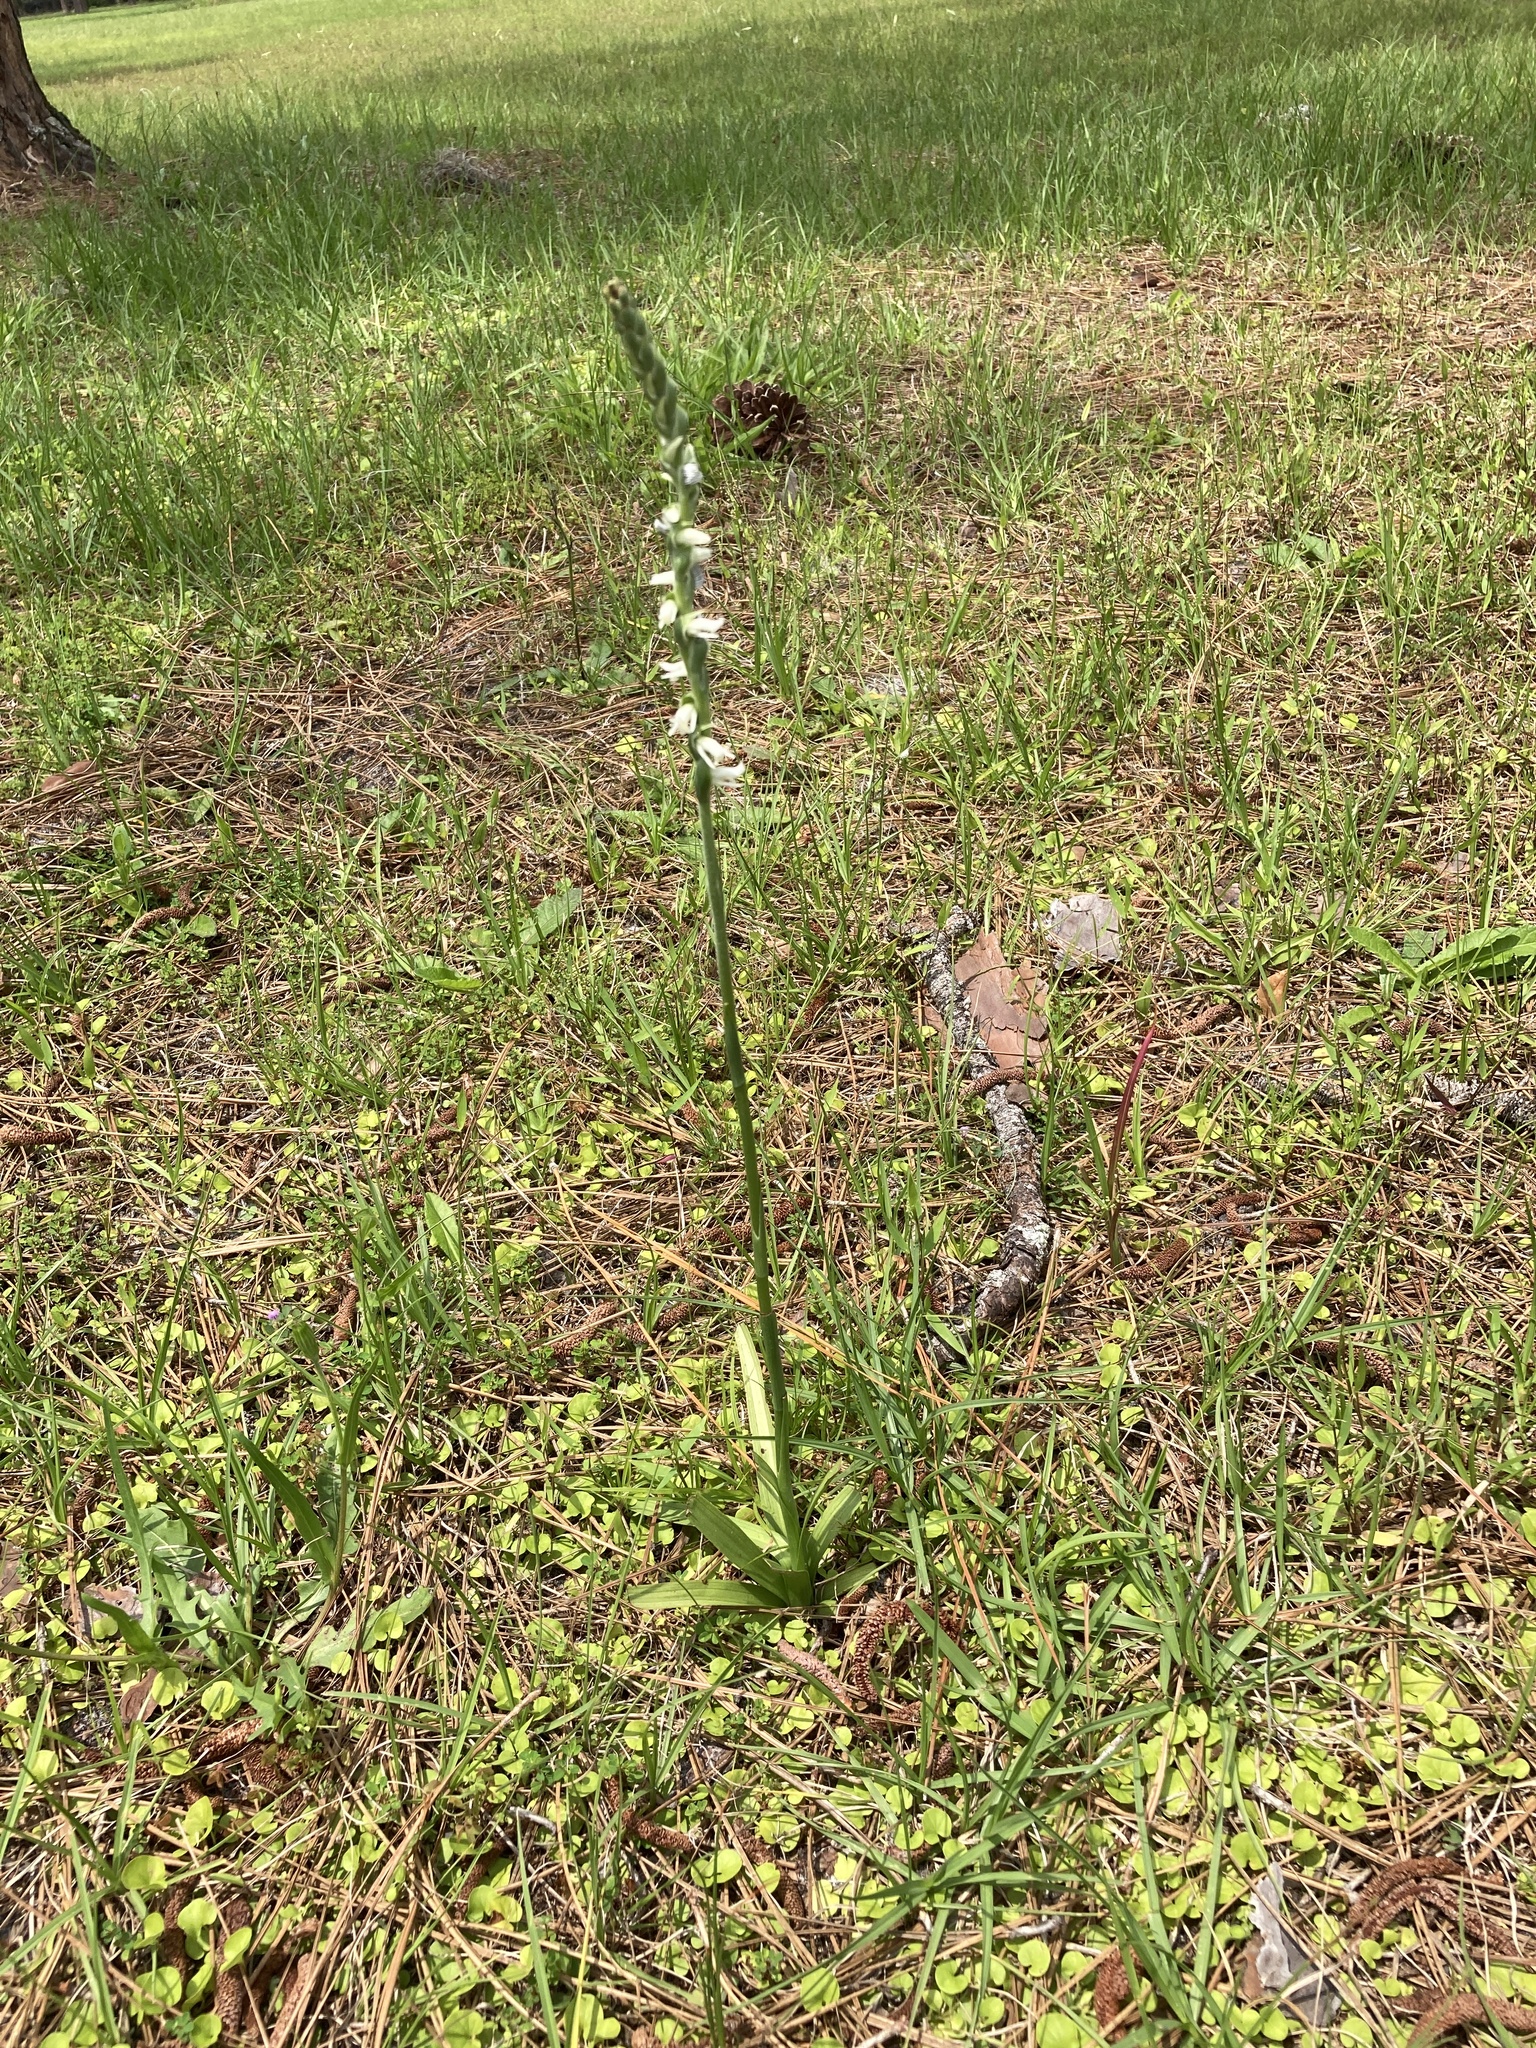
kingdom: Plantae
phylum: Tracheophyta
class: Liliopsida
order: Asparagales
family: Orchidaceae
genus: Spiranthes
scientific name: Spiranthes vernalis
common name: Spring ladies'-tresses
